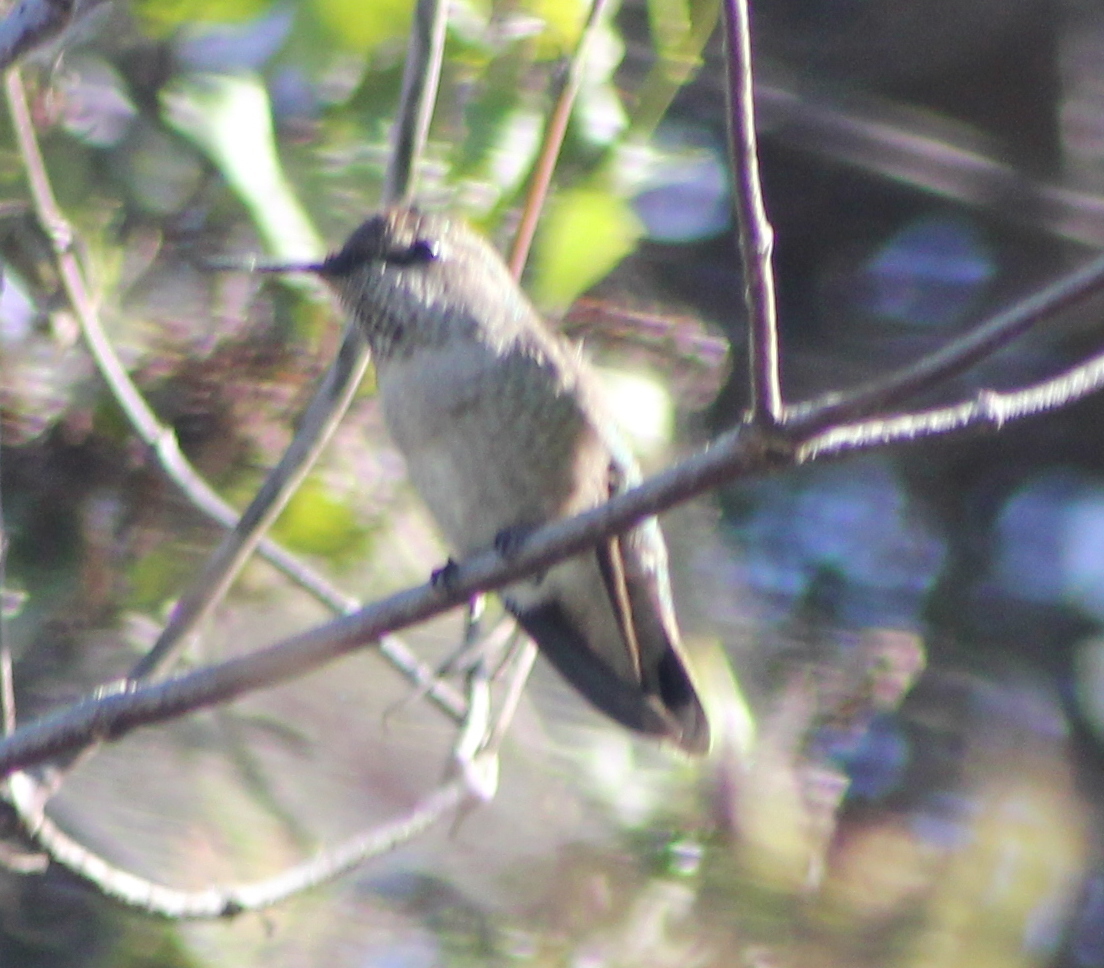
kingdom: Animalia
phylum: Chordata
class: Aves
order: Apodiformes
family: Trochilidae
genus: Calypte
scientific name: Calypte anna
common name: Anna's hummingbird
